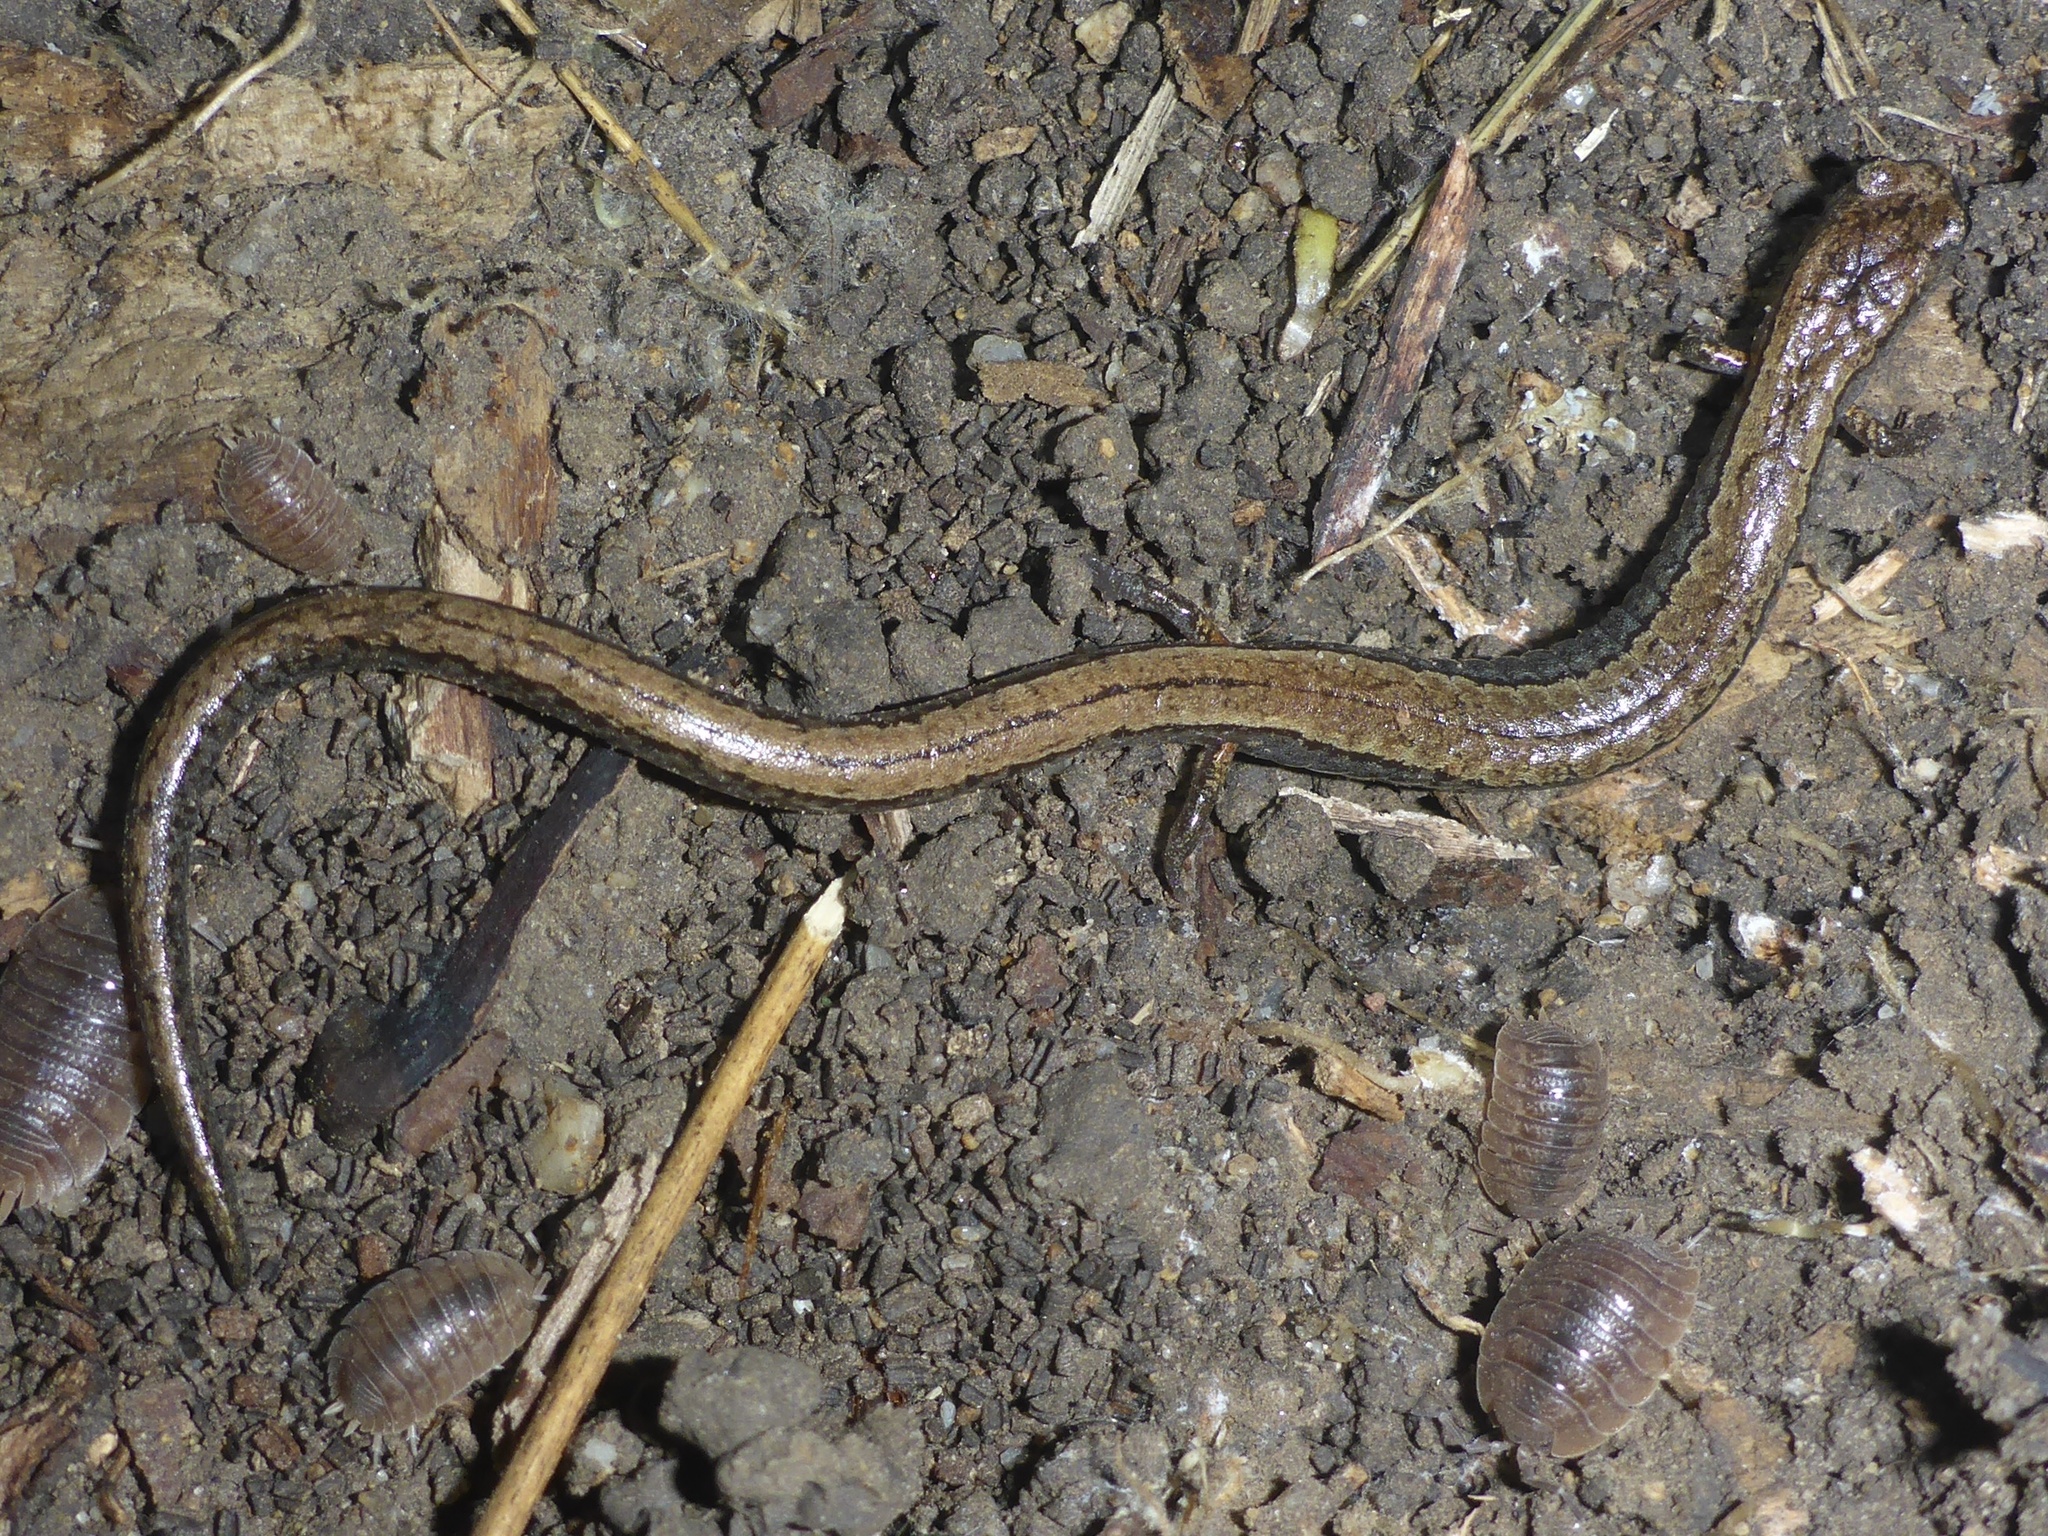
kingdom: Animalia
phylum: Chordata
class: Amphibia
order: Caudata
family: Plethodontidae
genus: Batrachoseps
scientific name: Batrachoseps attenuatus
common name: California slender salamander
